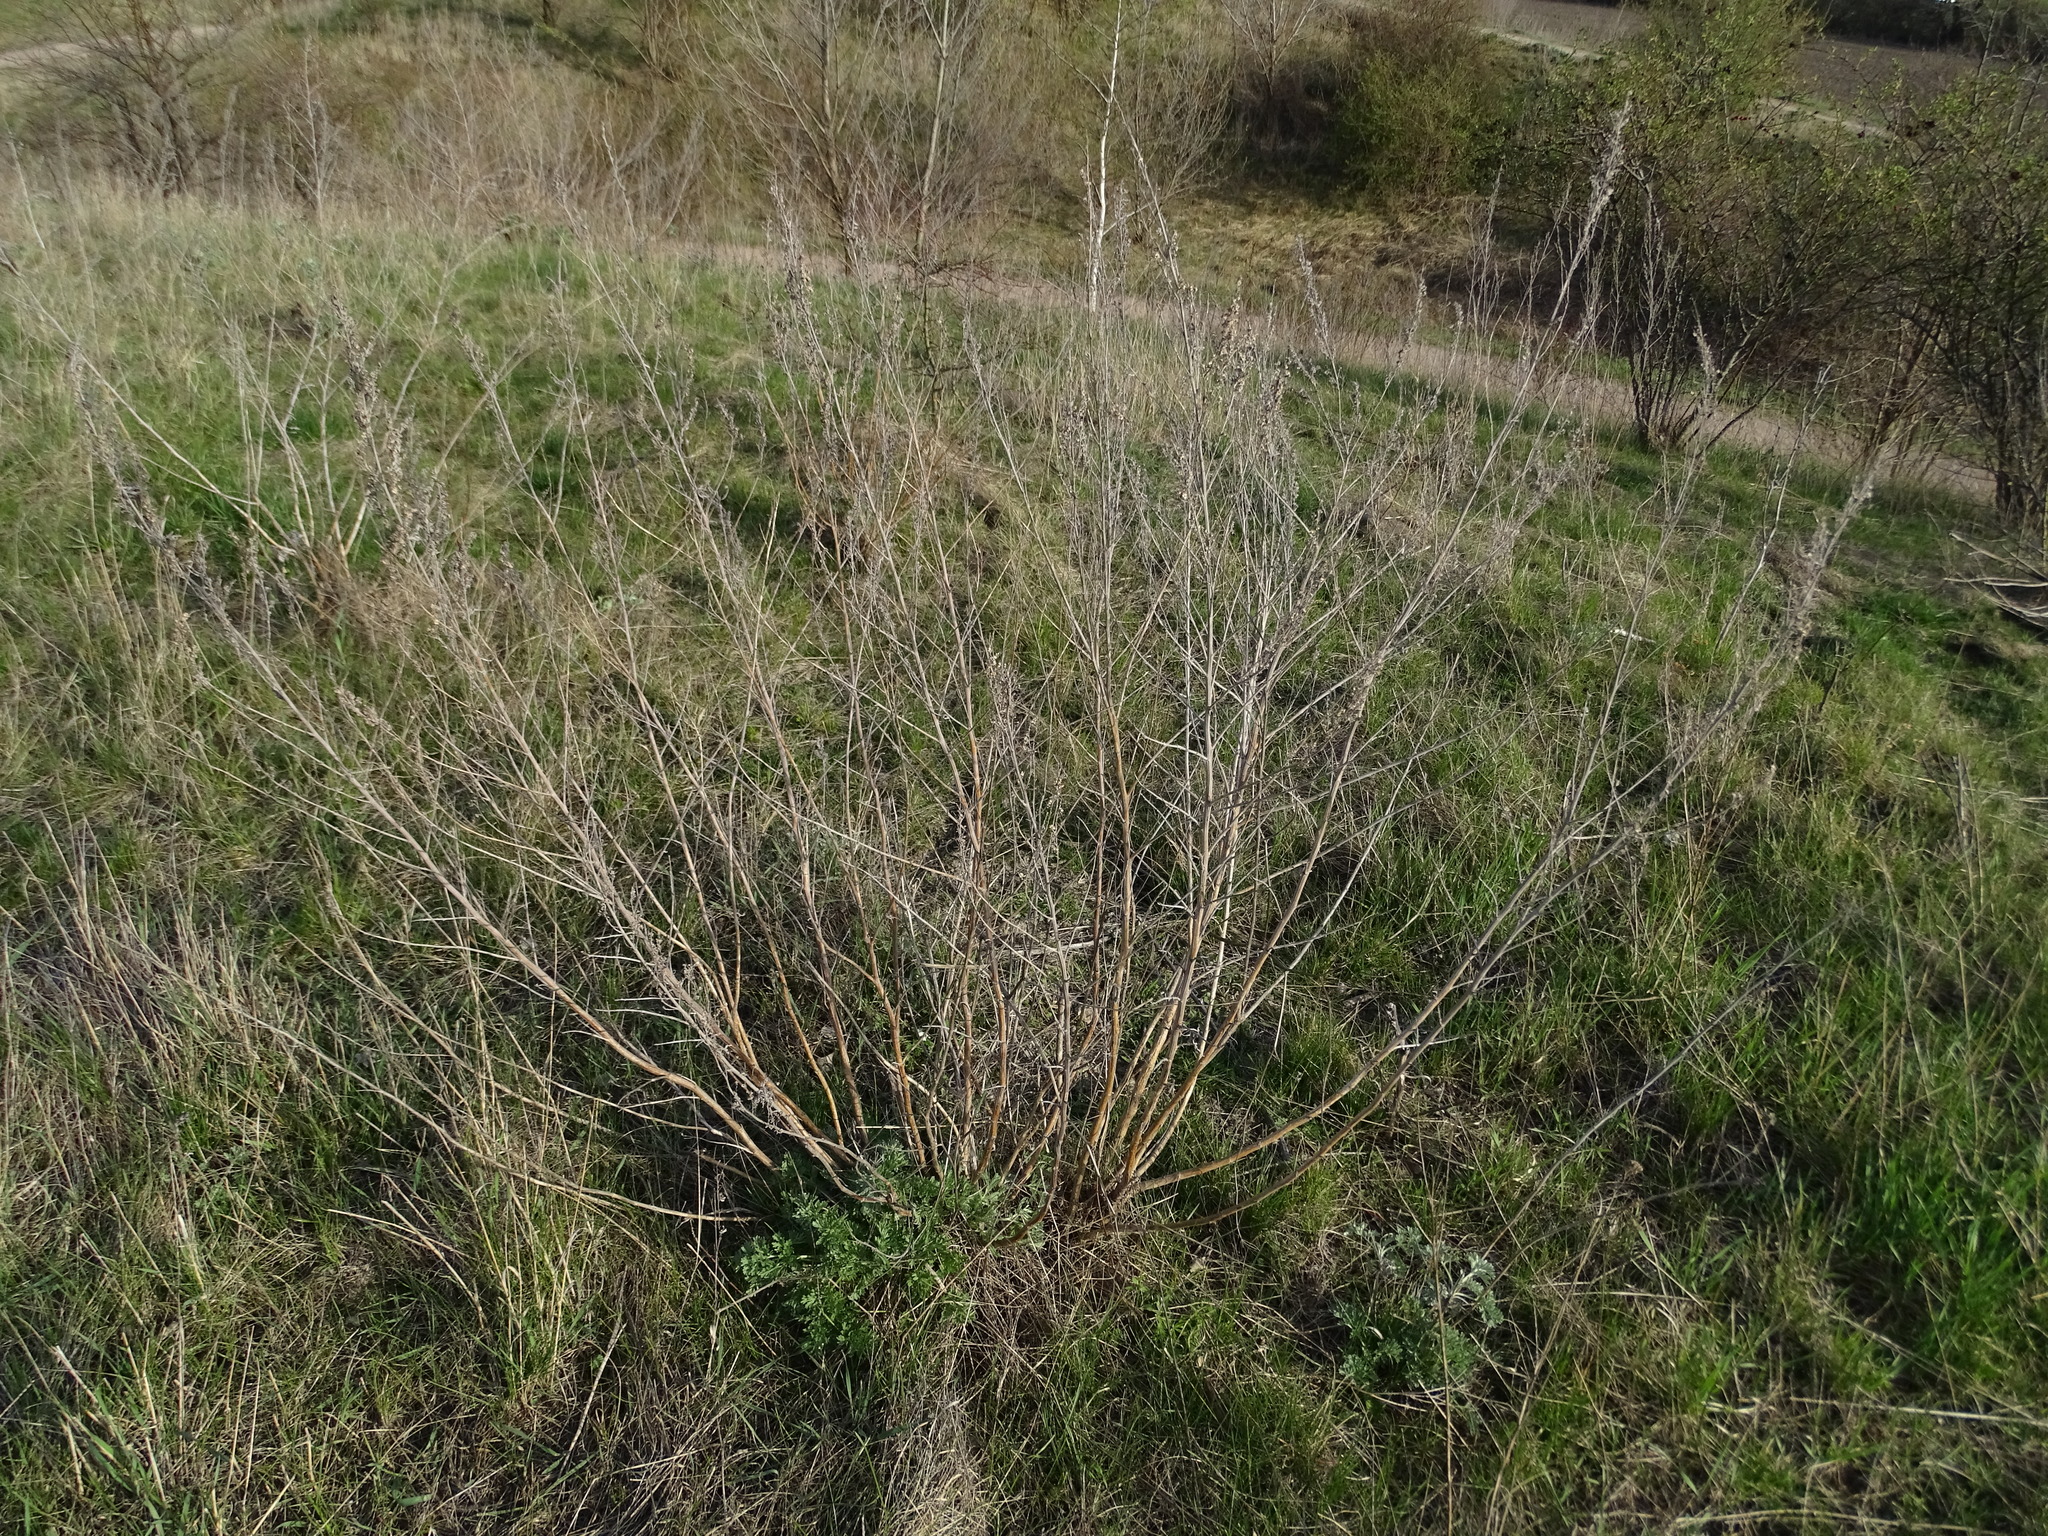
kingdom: Plantae
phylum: Tracheophyta
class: Magnoliopsida
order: Asterales
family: Asteraceae
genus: Artemisia
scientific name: Artemisia absinthium
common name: Wormwood
